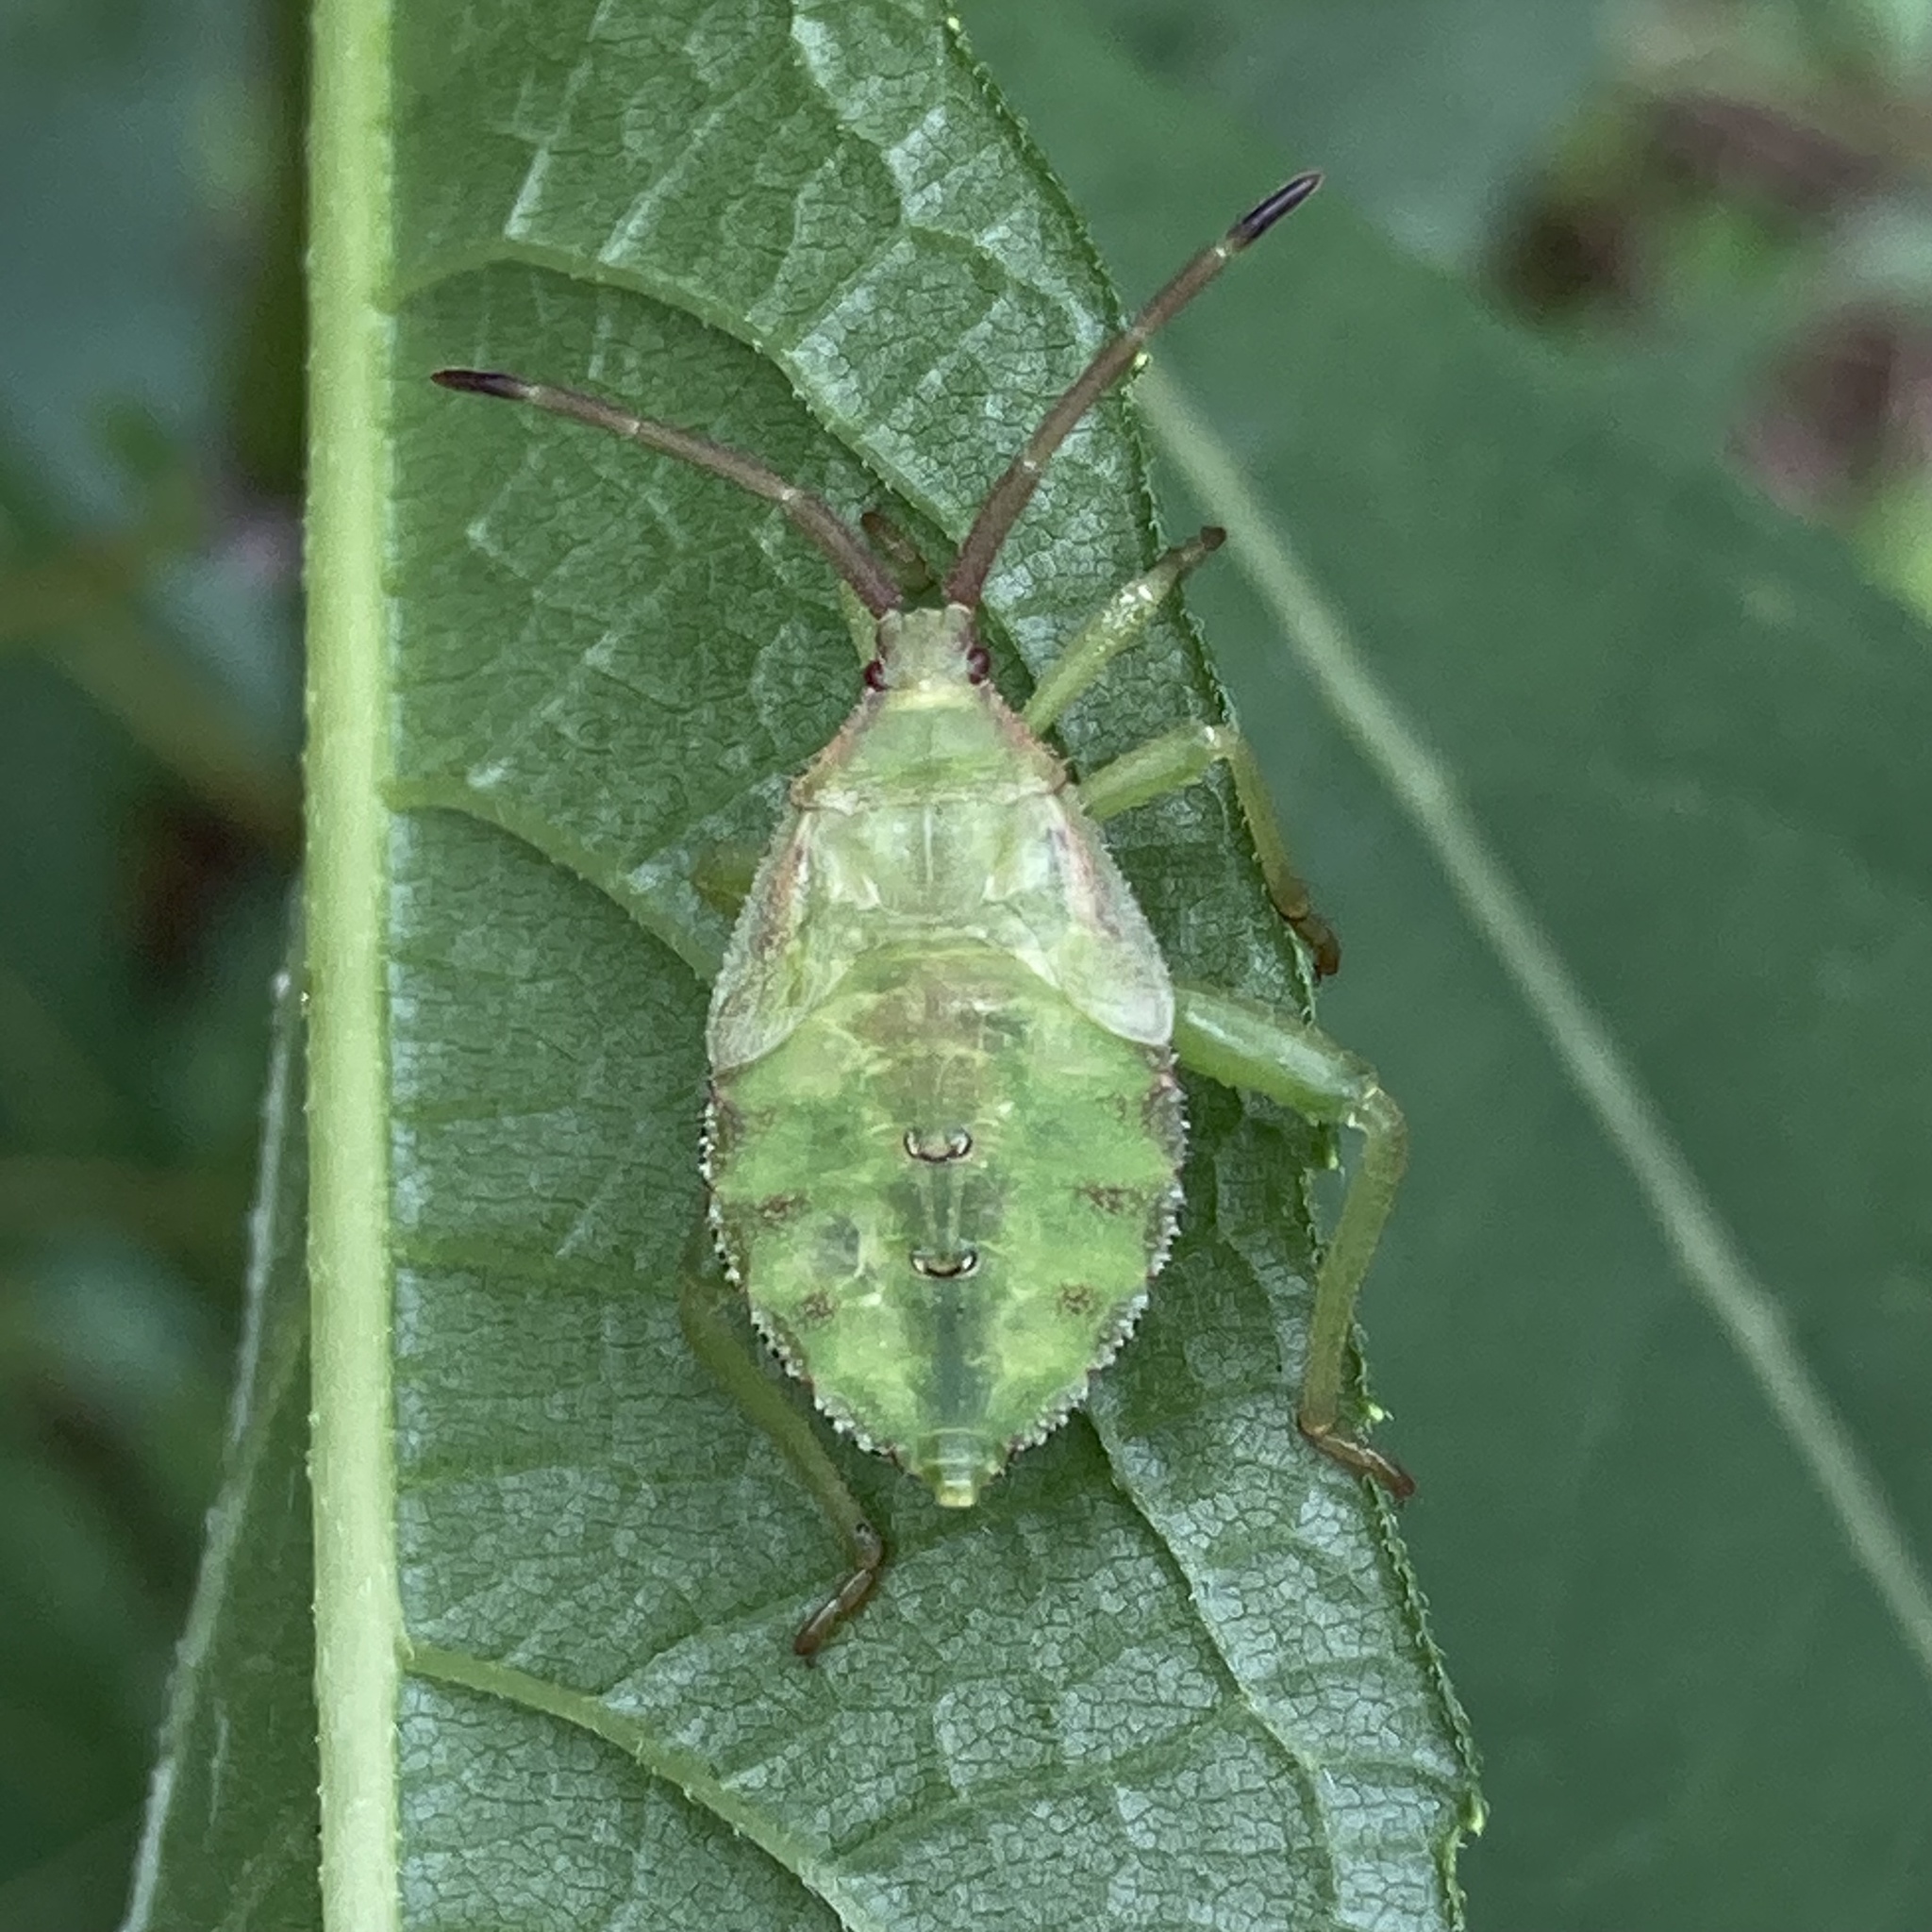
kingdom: Animalia
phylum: Arthropoda
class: Insecta
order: Hemiptera
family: Coreidae
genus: Piezogaster
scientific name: Piezogaster calcarator
